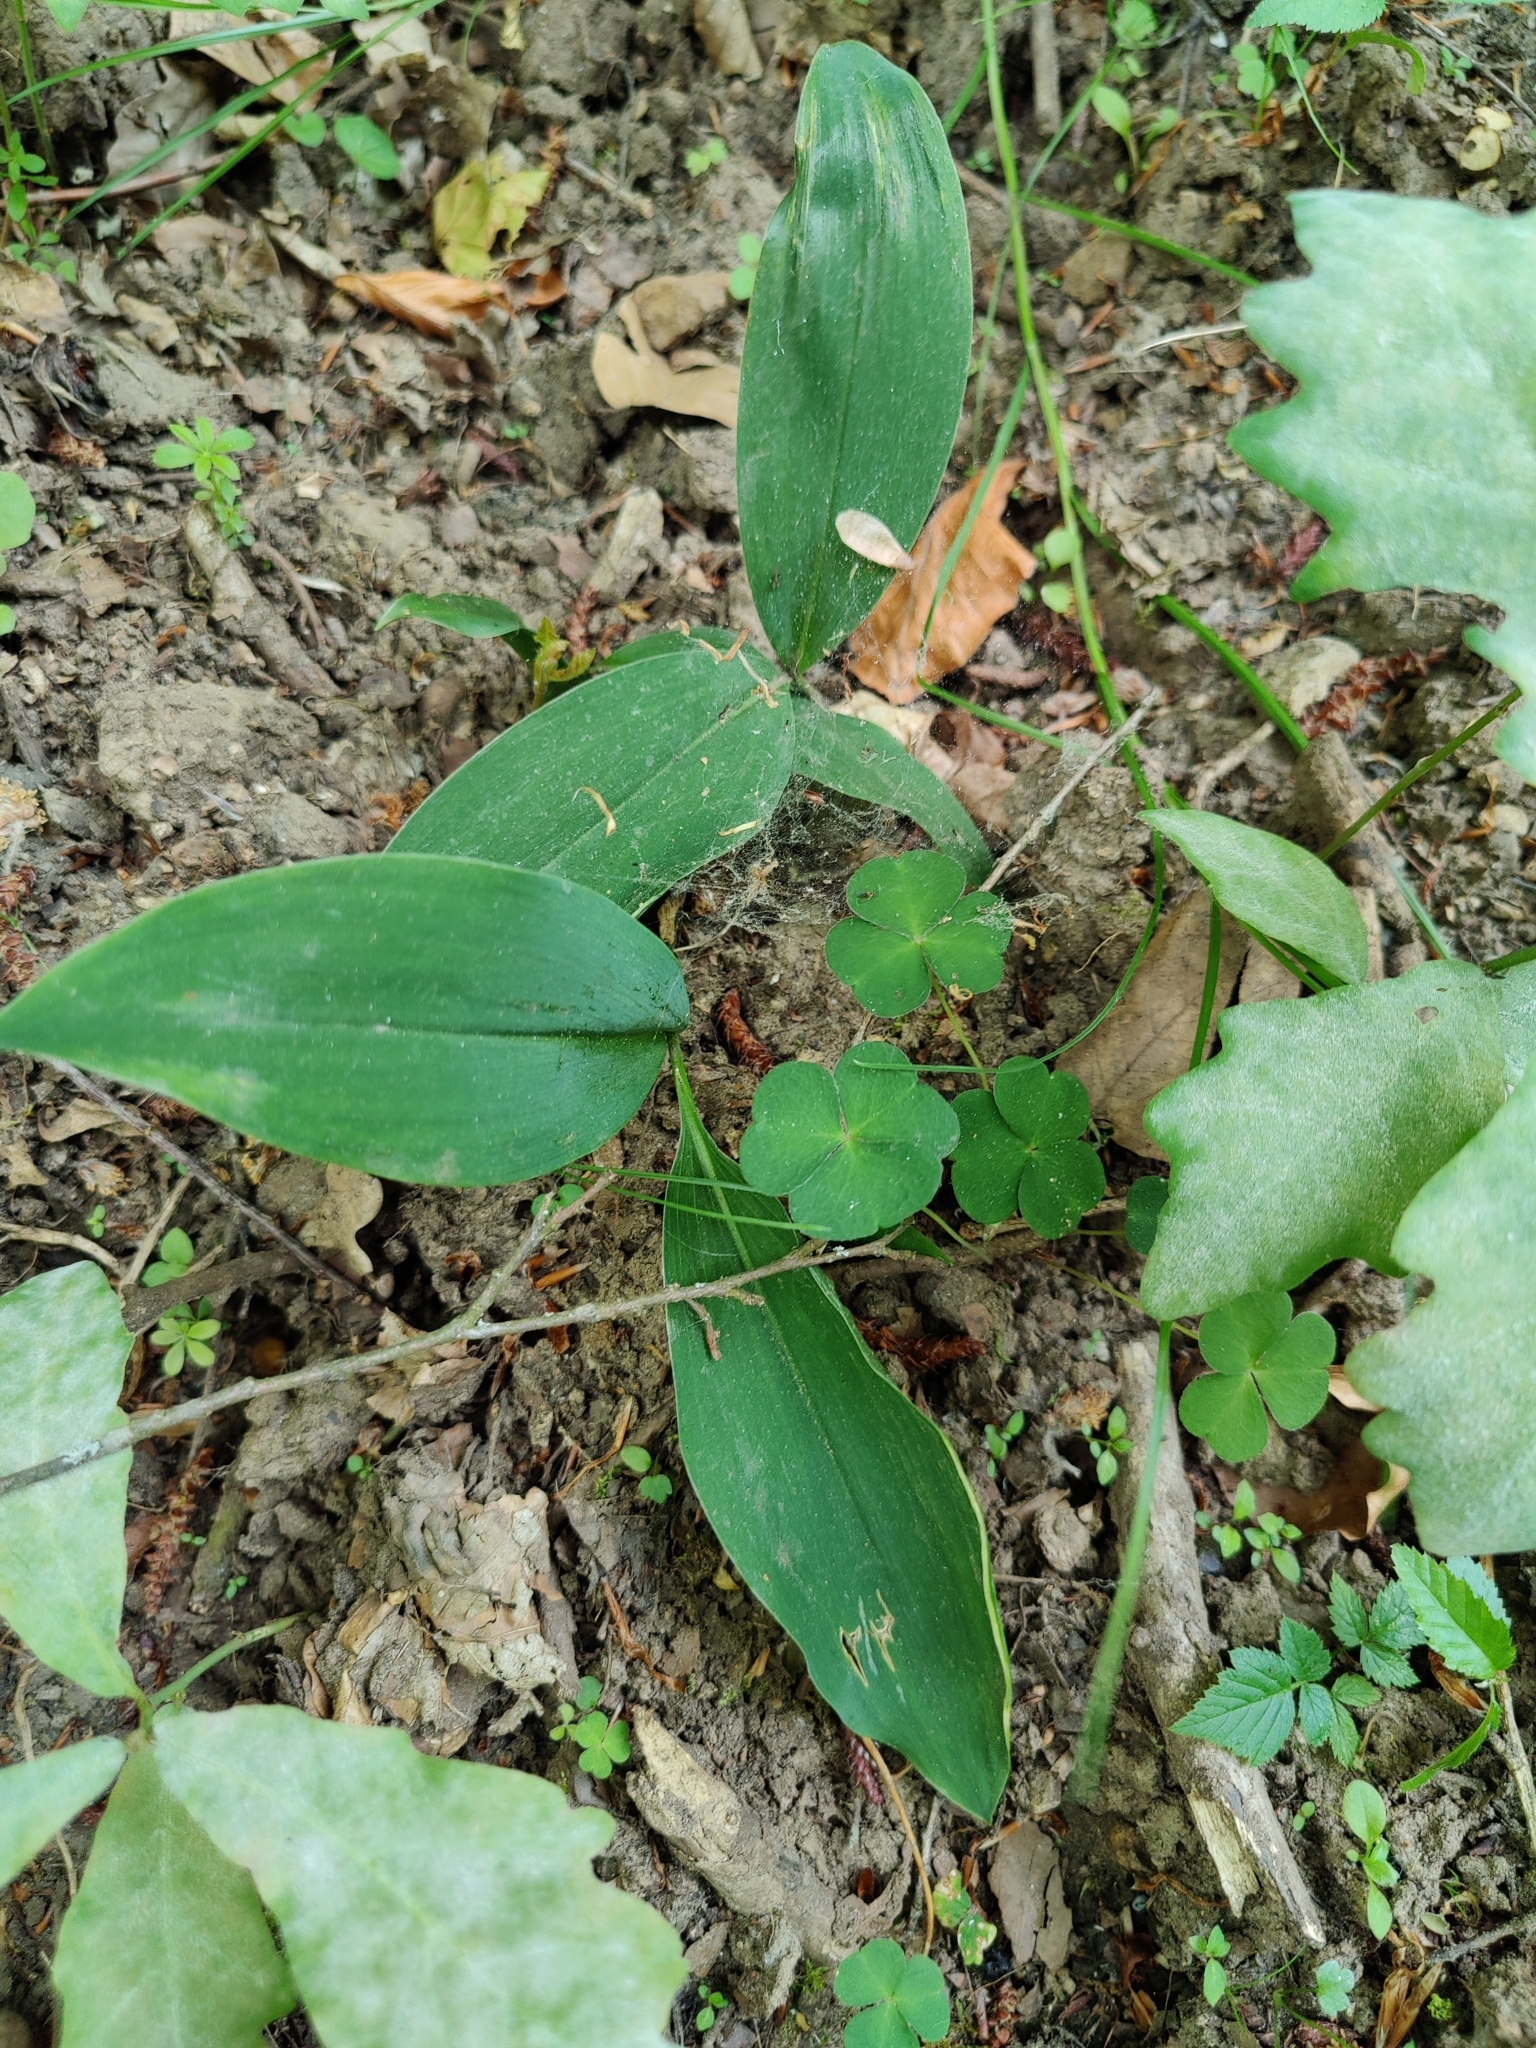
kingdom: Plantae
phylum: Tracheophyta
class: Liliopsida
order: Asparagales
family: Asparagaceae
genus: Convallaria
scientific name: Convallaria majalis
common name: Lily-of-the-valley
